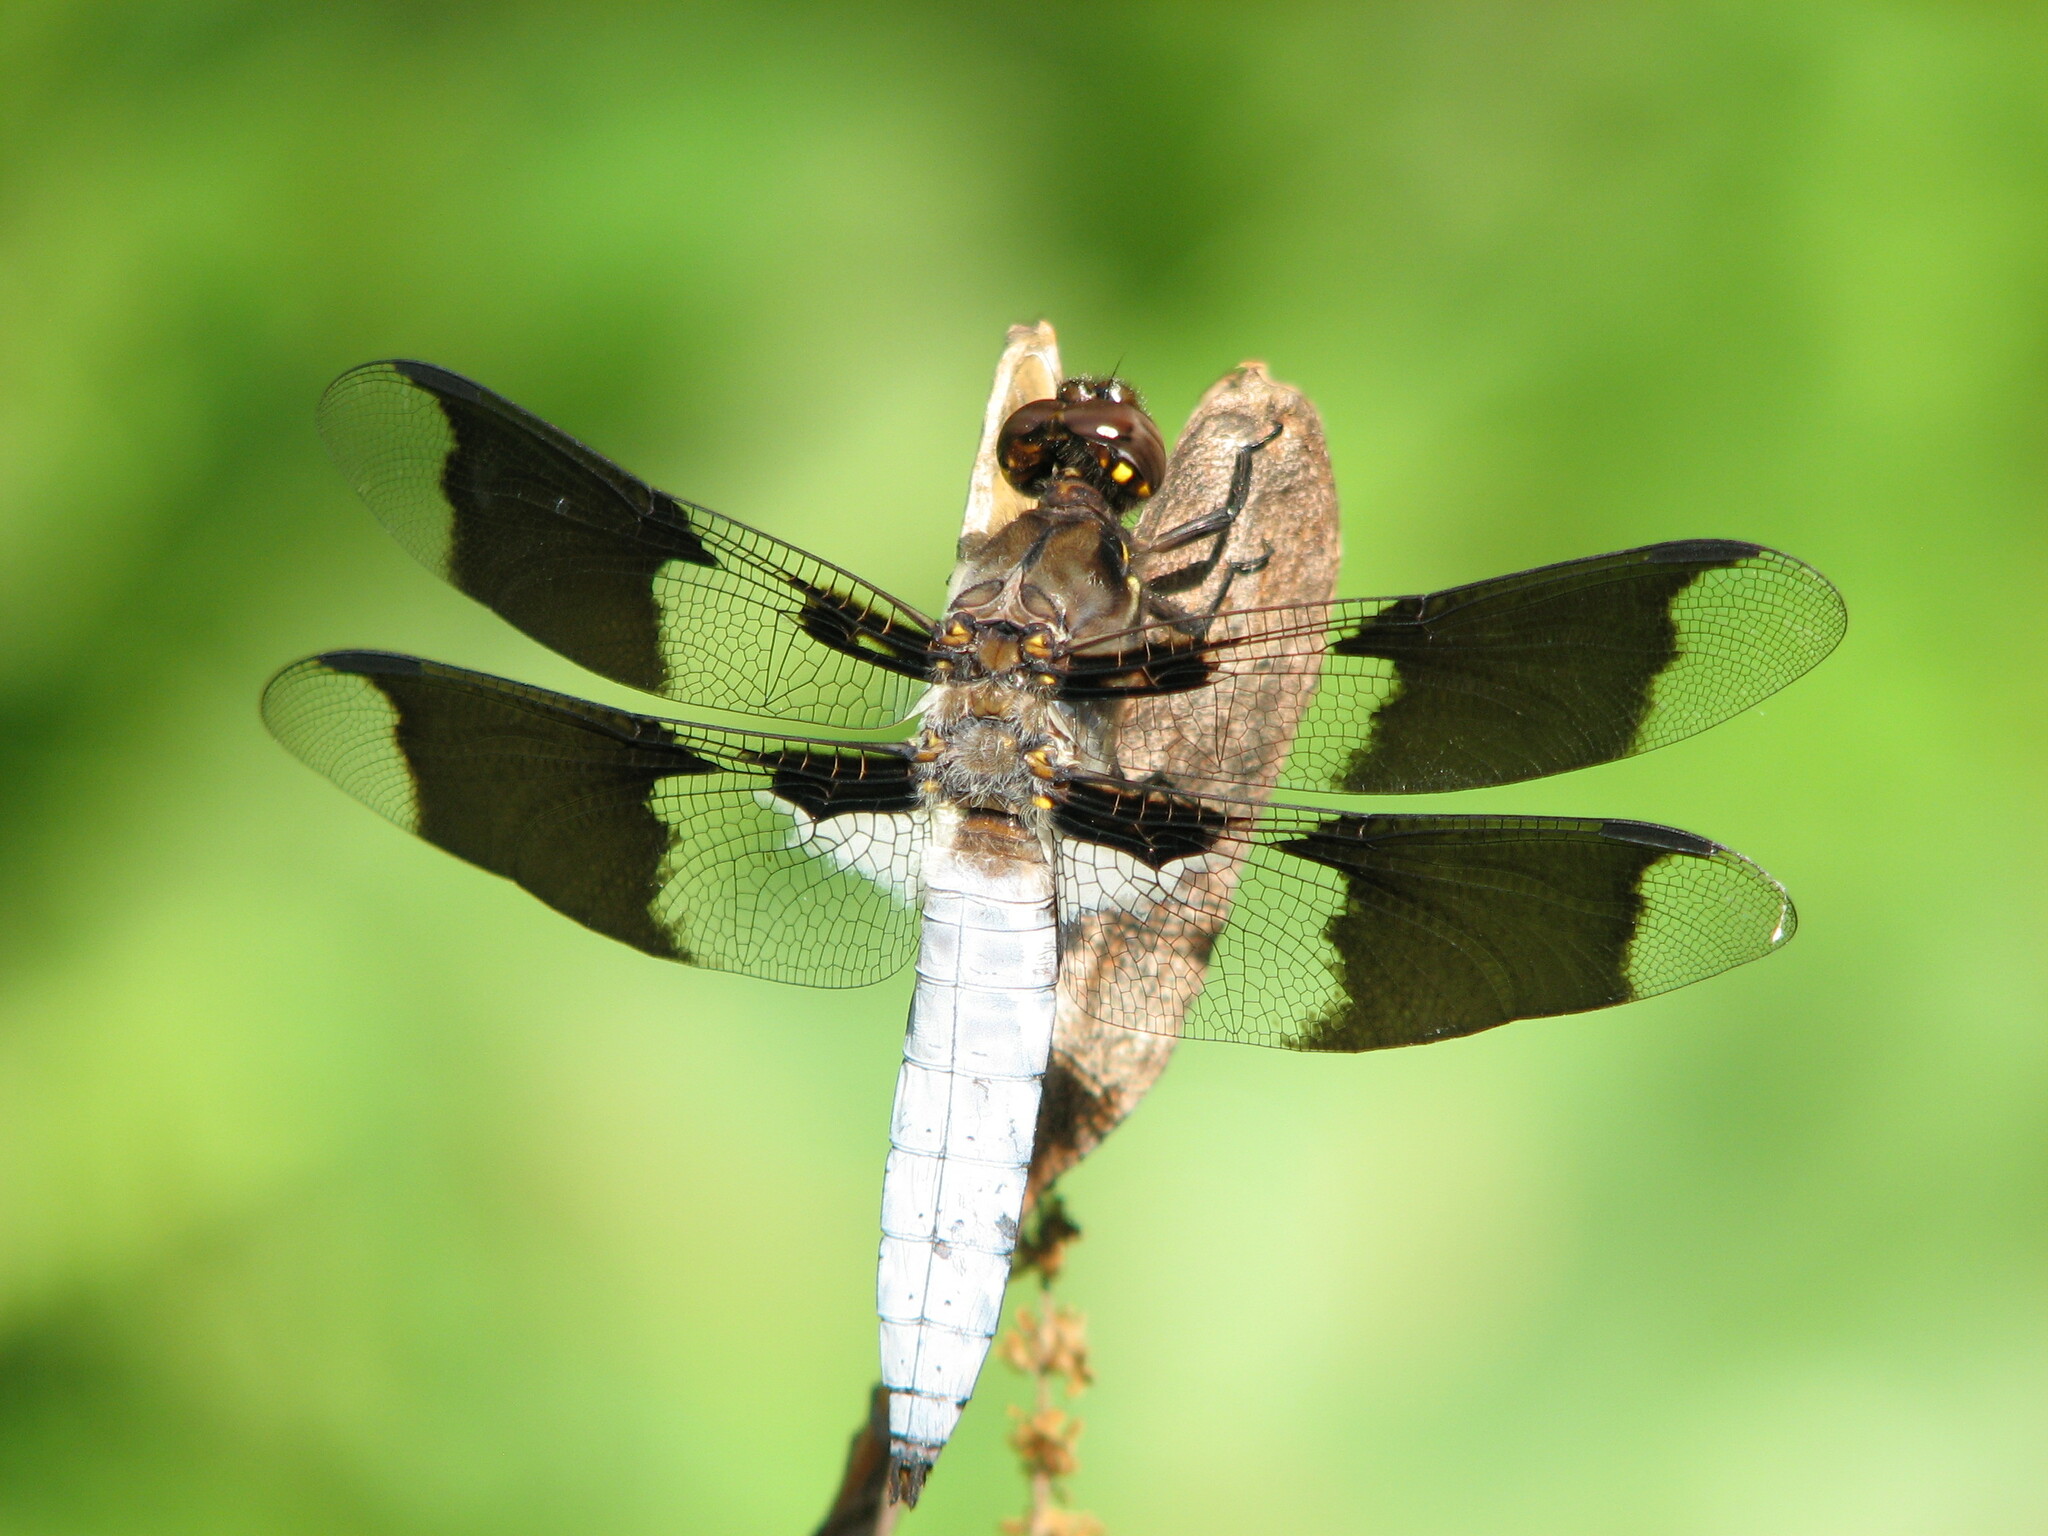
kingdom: Animalia
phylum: Arthropoda
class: Insecta
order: Odonata
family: Libellulidae
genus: Plathemis
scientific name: Plathemis lydia
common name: Common whitetail
